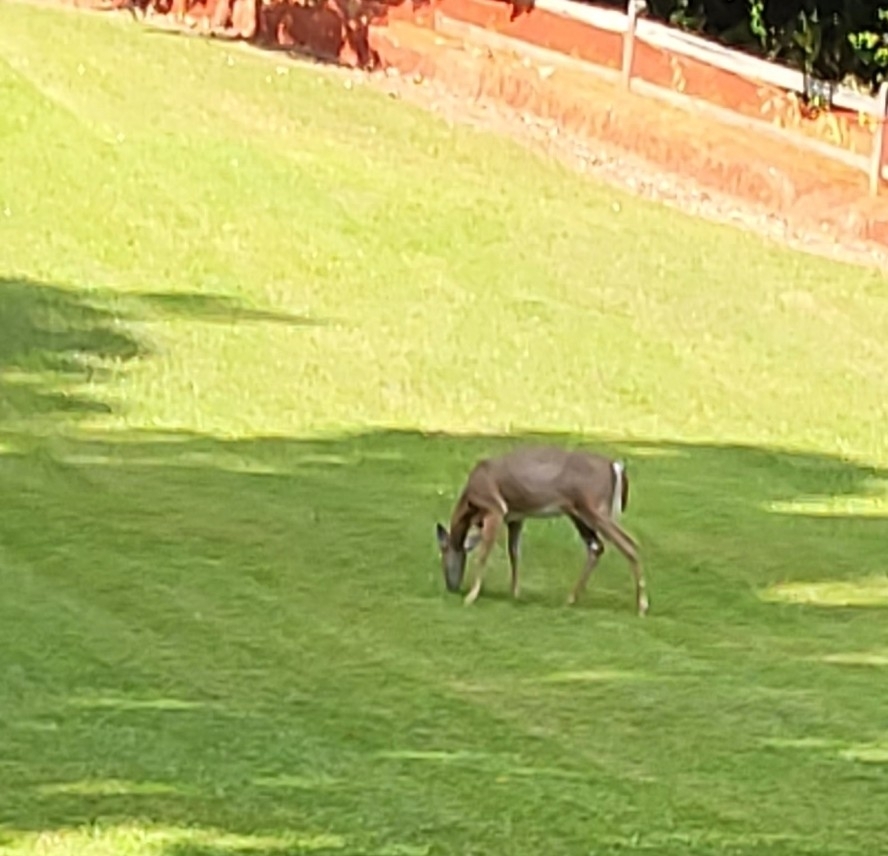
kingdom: Animalia
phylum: Chordata
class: Mammalia
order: Artiodactyla
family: Cervidae
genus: Odocoileus
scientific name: Odocoileus virginianus
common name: White-tailed deer
